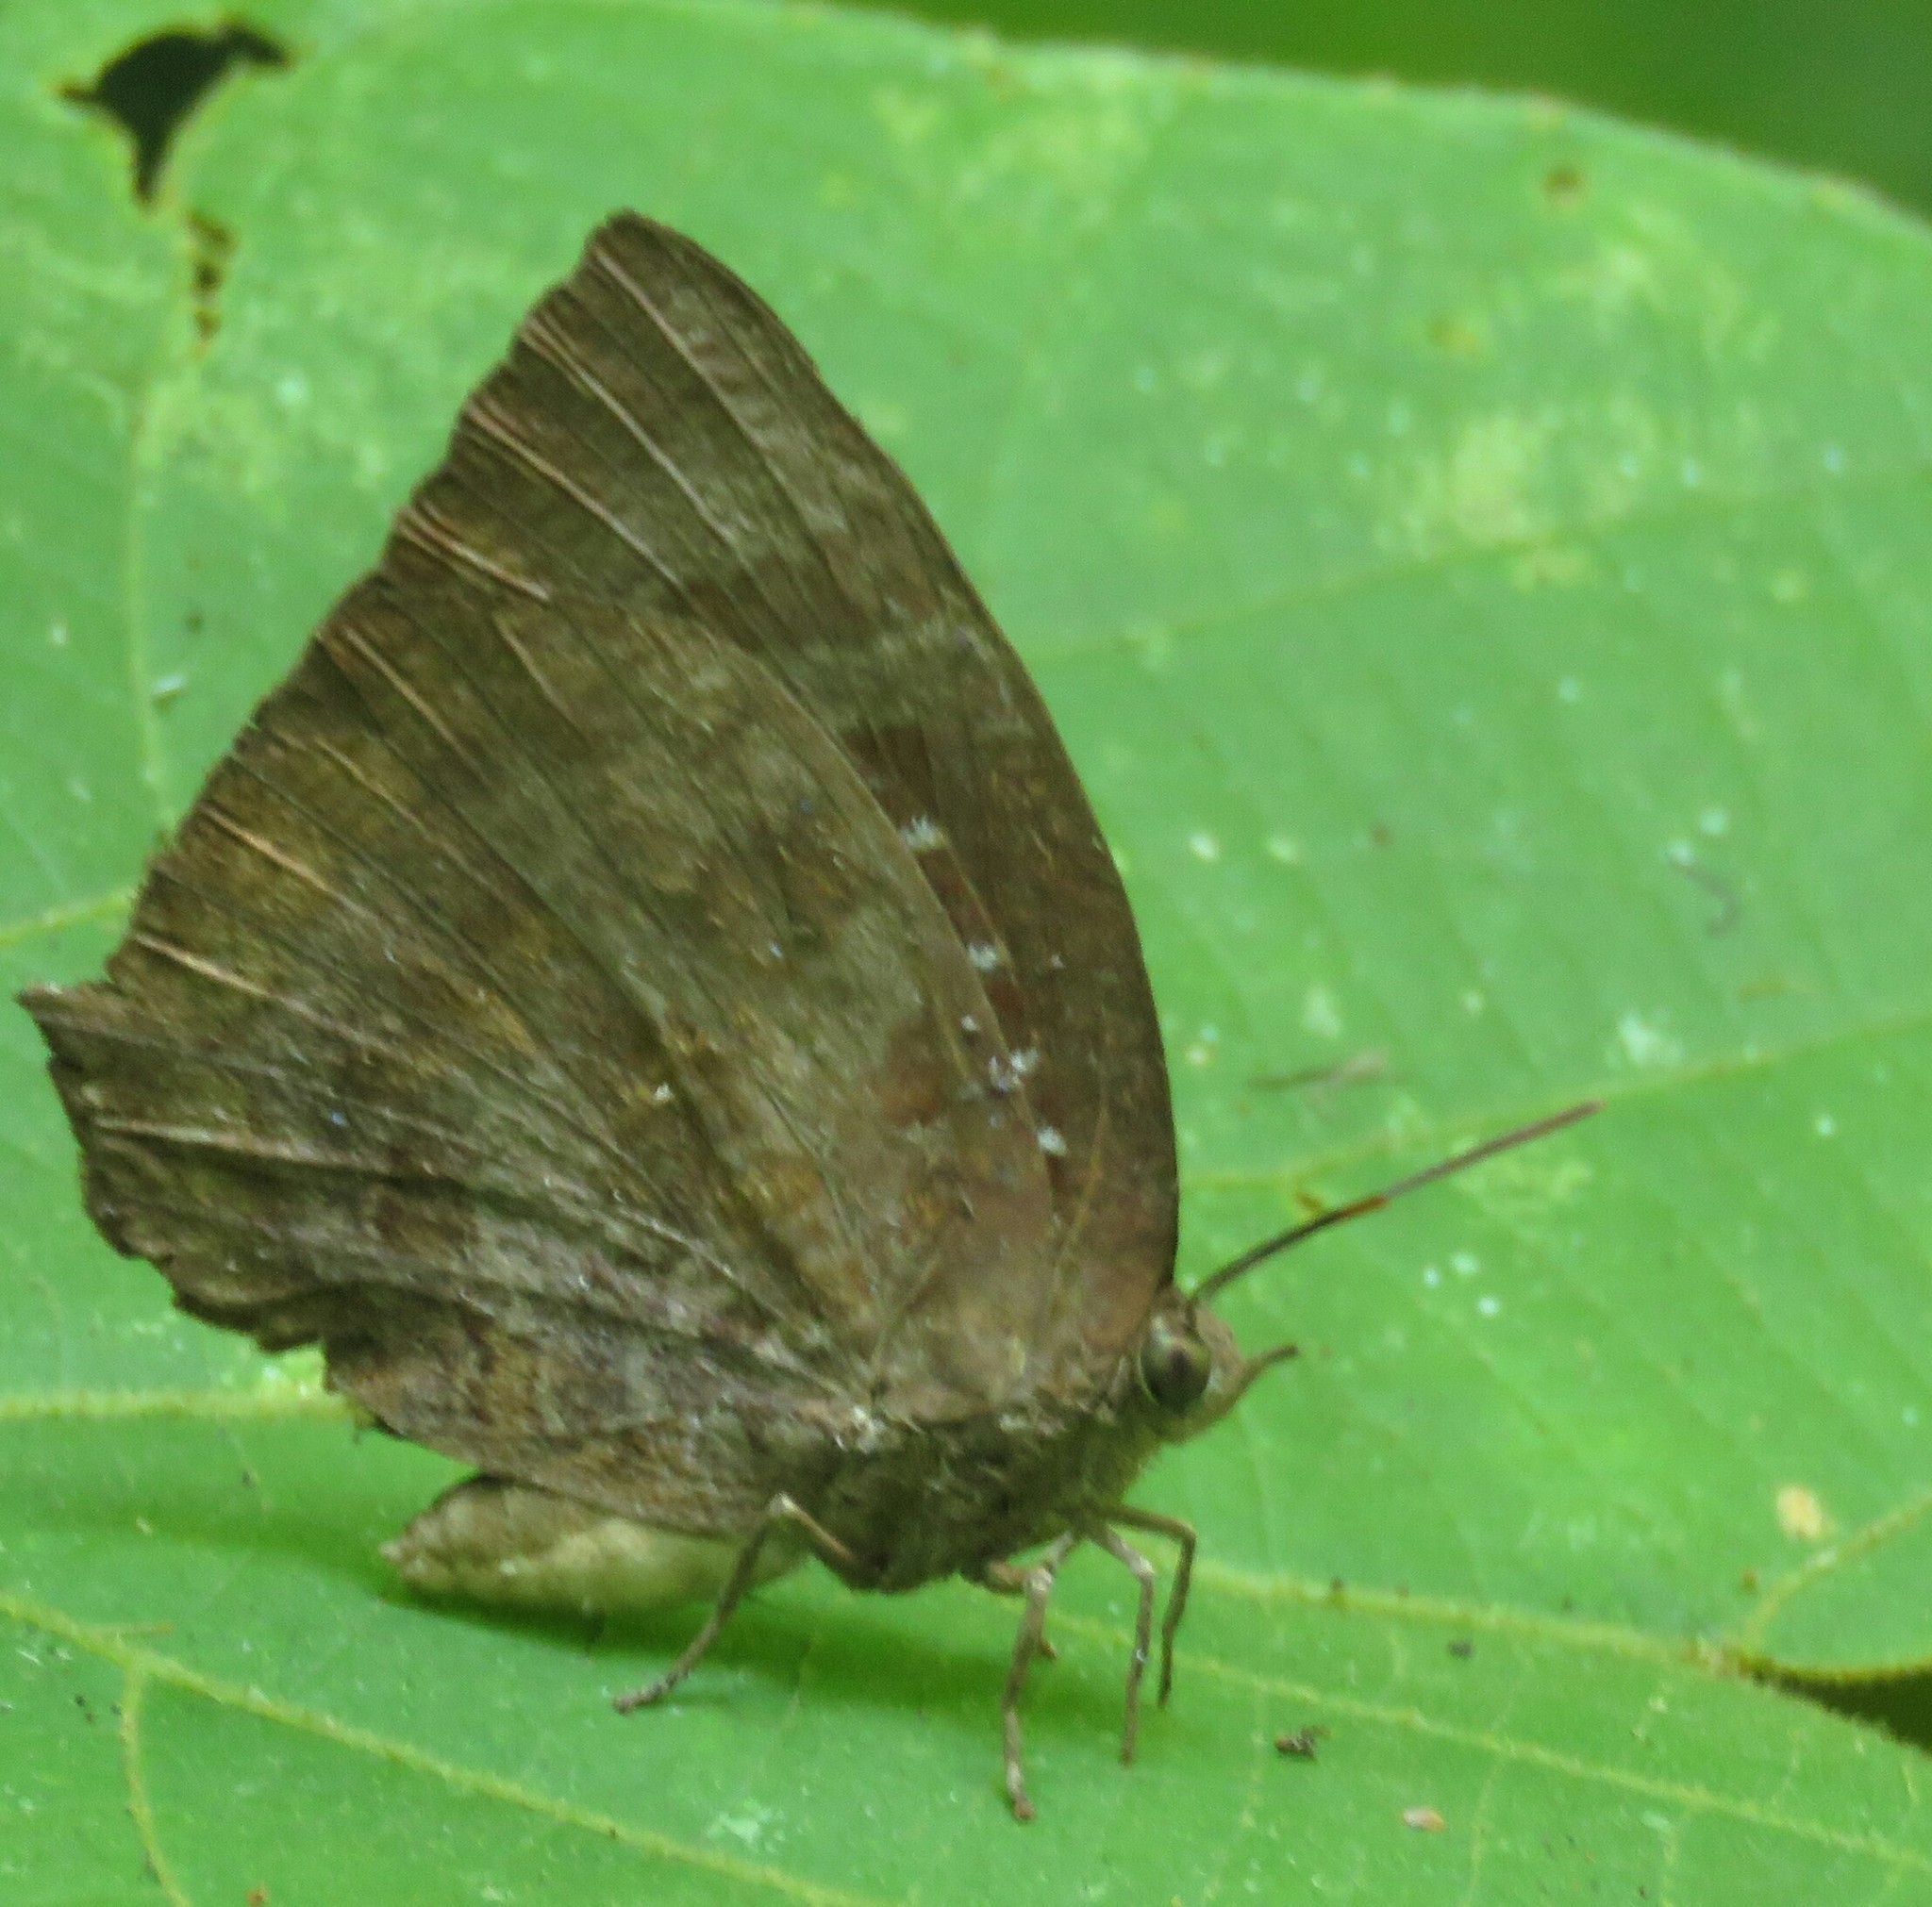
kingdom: Animalia
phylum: Arthropoda
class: Insecta
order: Lepidoptera
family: Lycaenidae
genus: Arhopala
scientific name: Arhopala centaurus
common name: Dull oak-blue
